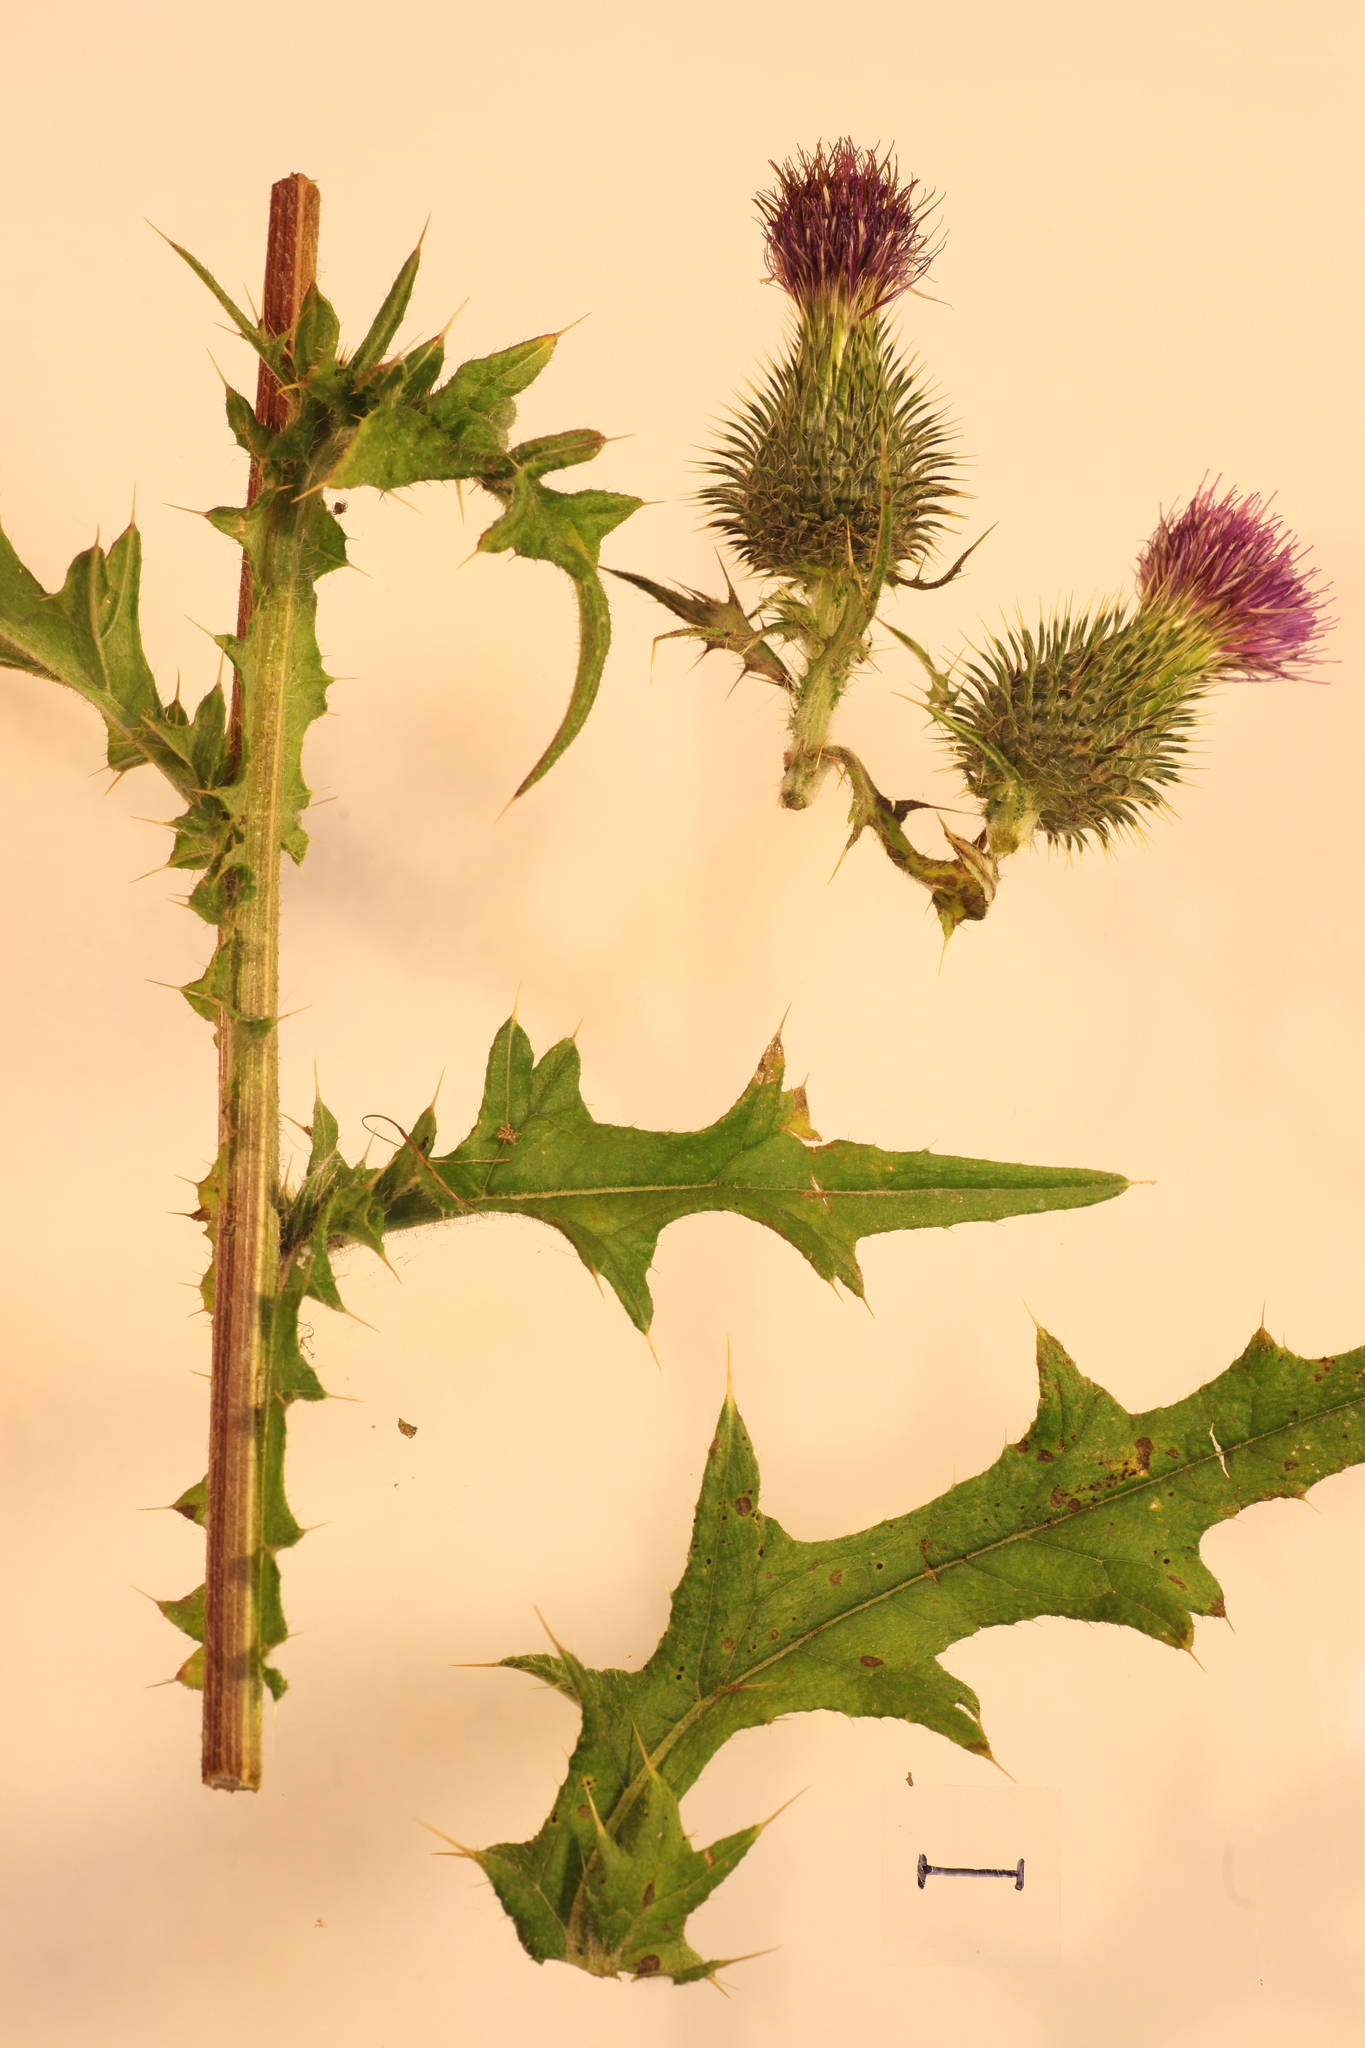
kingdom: Plantae
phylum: Tracheophyta
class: Magnoliopsida
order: Asterales
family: Asteraceae
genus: Cirsium
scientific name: Cirsium vulgare
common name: Bull thistle
